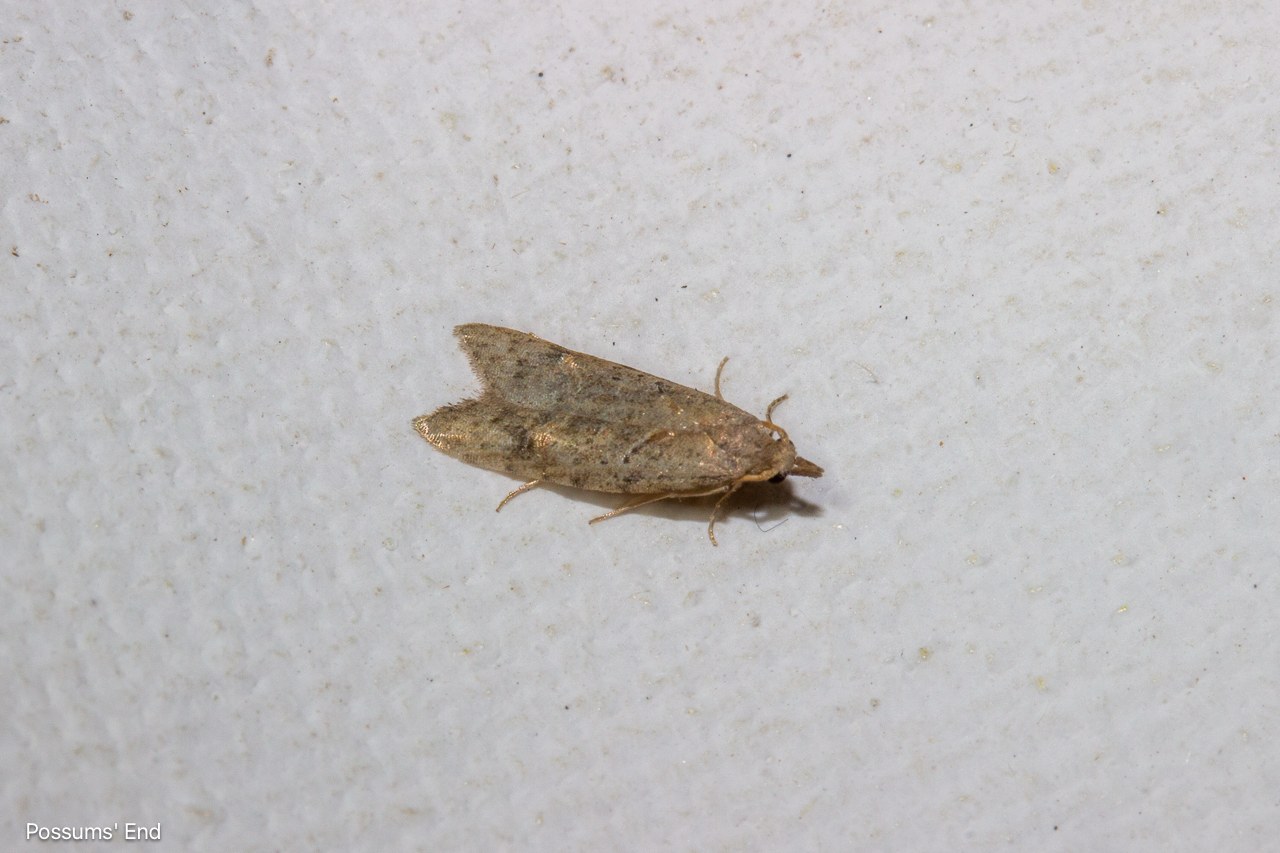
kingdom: Animalia
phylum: Arthropoda
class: Insecta
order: Lepidoptera
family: Carposinidae
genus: Carposina
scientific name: Carposina rubophaga
